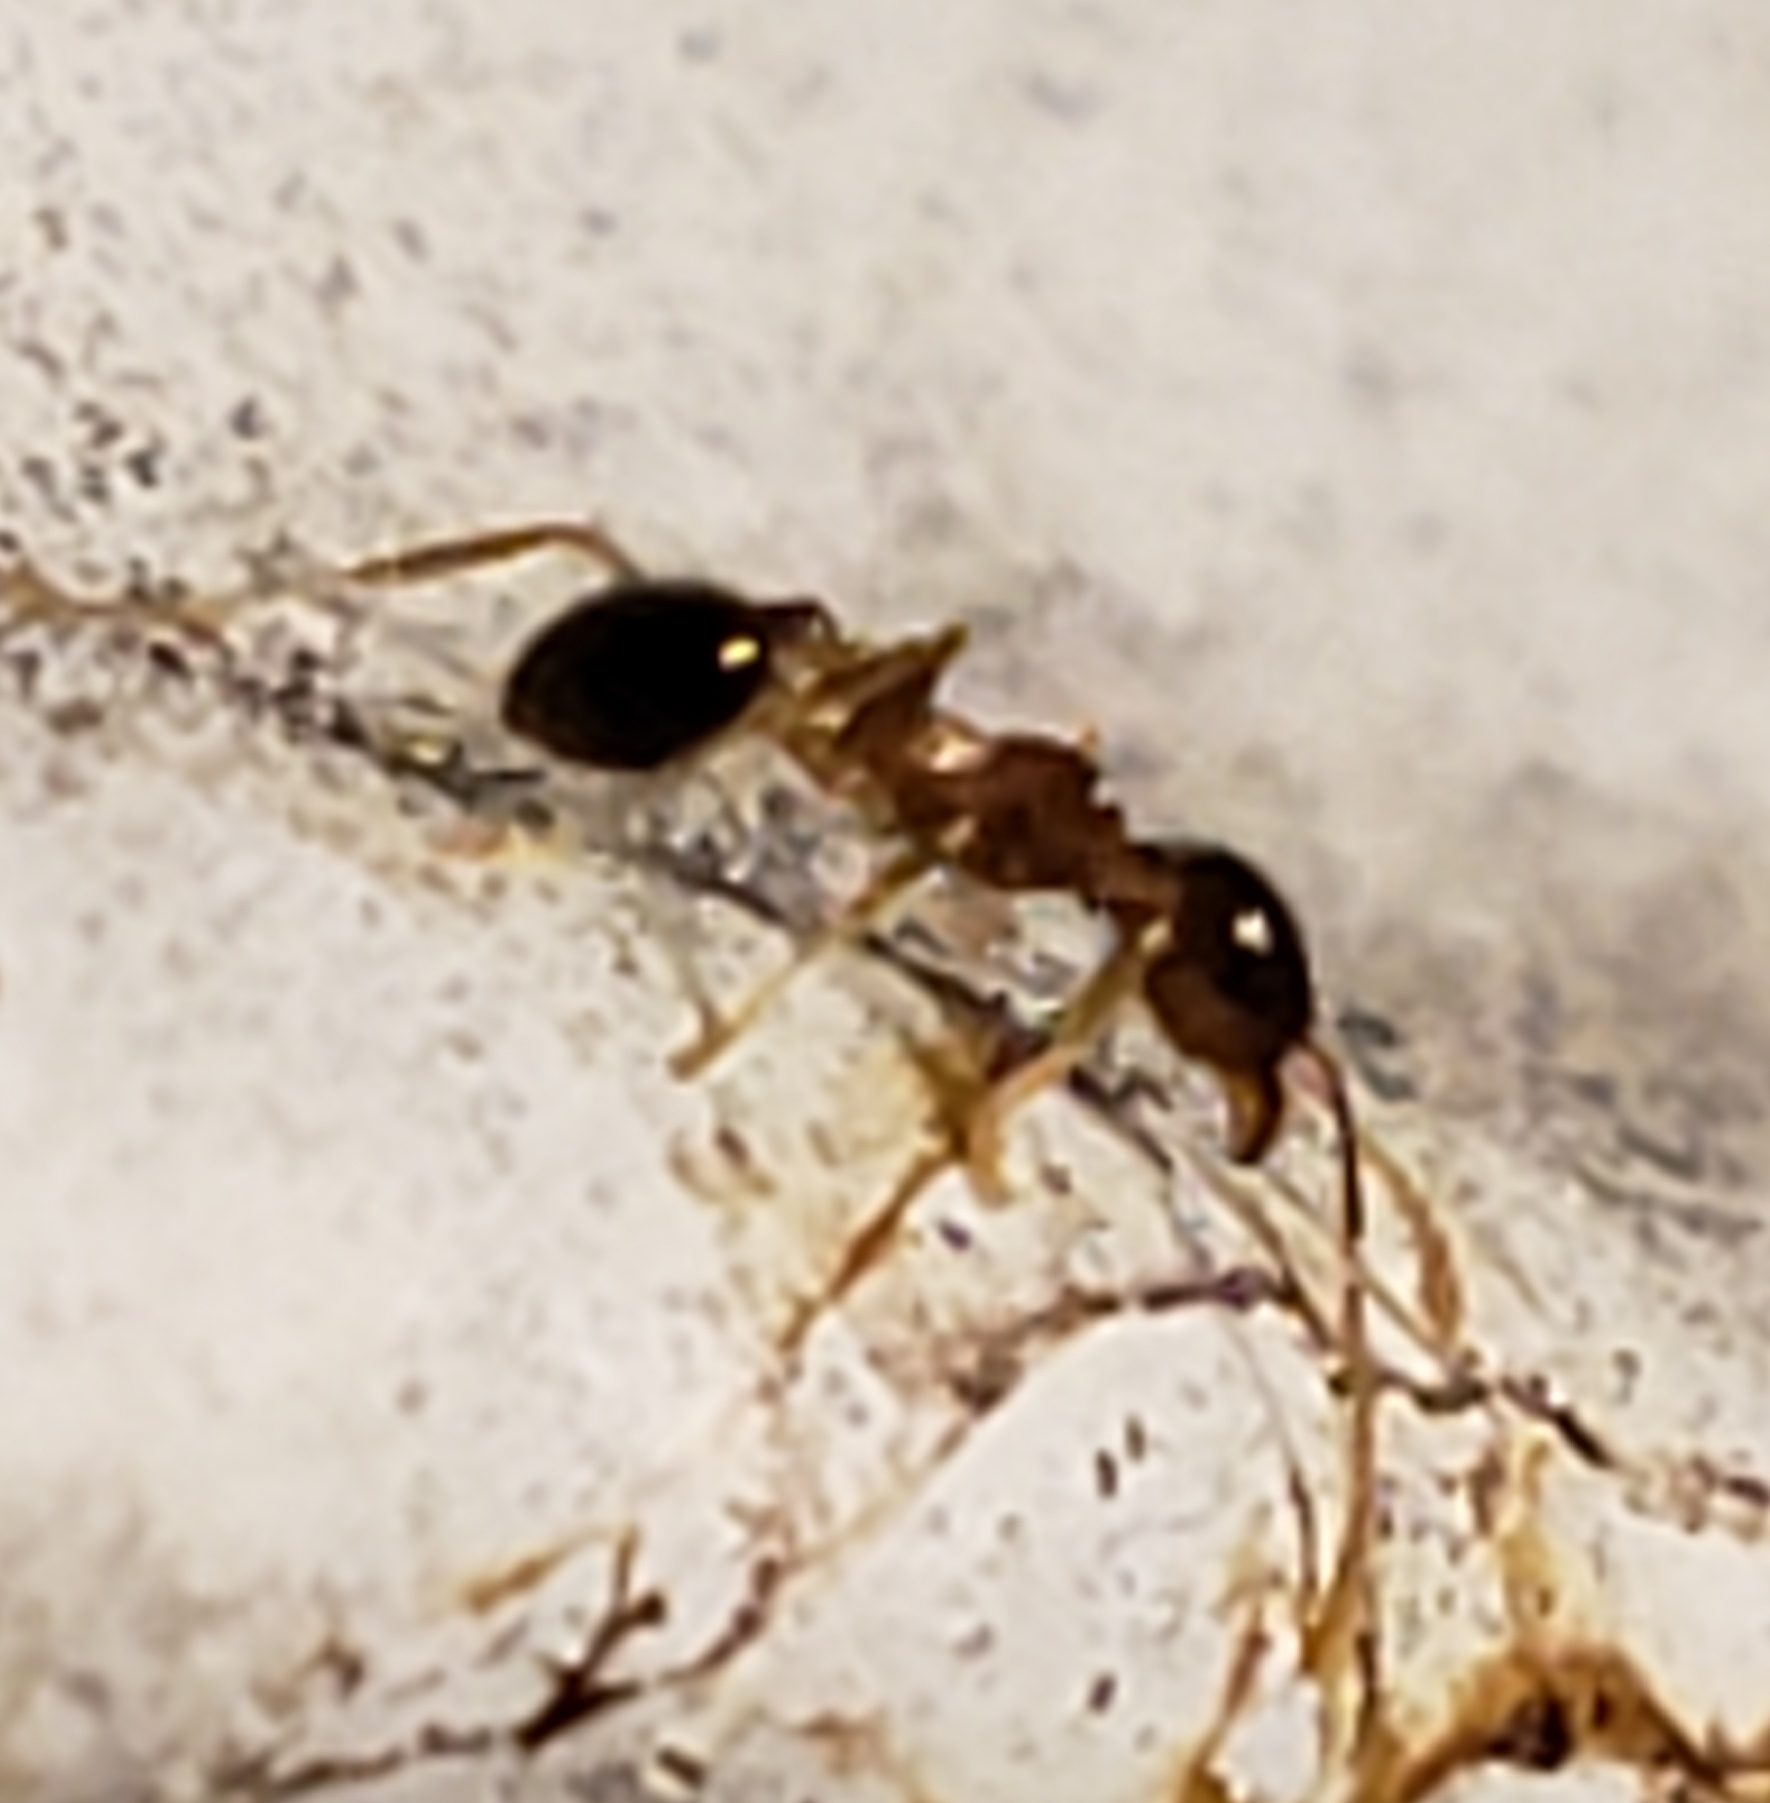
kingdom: Animalia
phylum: Arthropoda
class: Insecta
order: Hymenoptera
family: Formicidae
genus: Pheidole
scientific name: Pheidole megacephala
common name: Bigheaded ant
